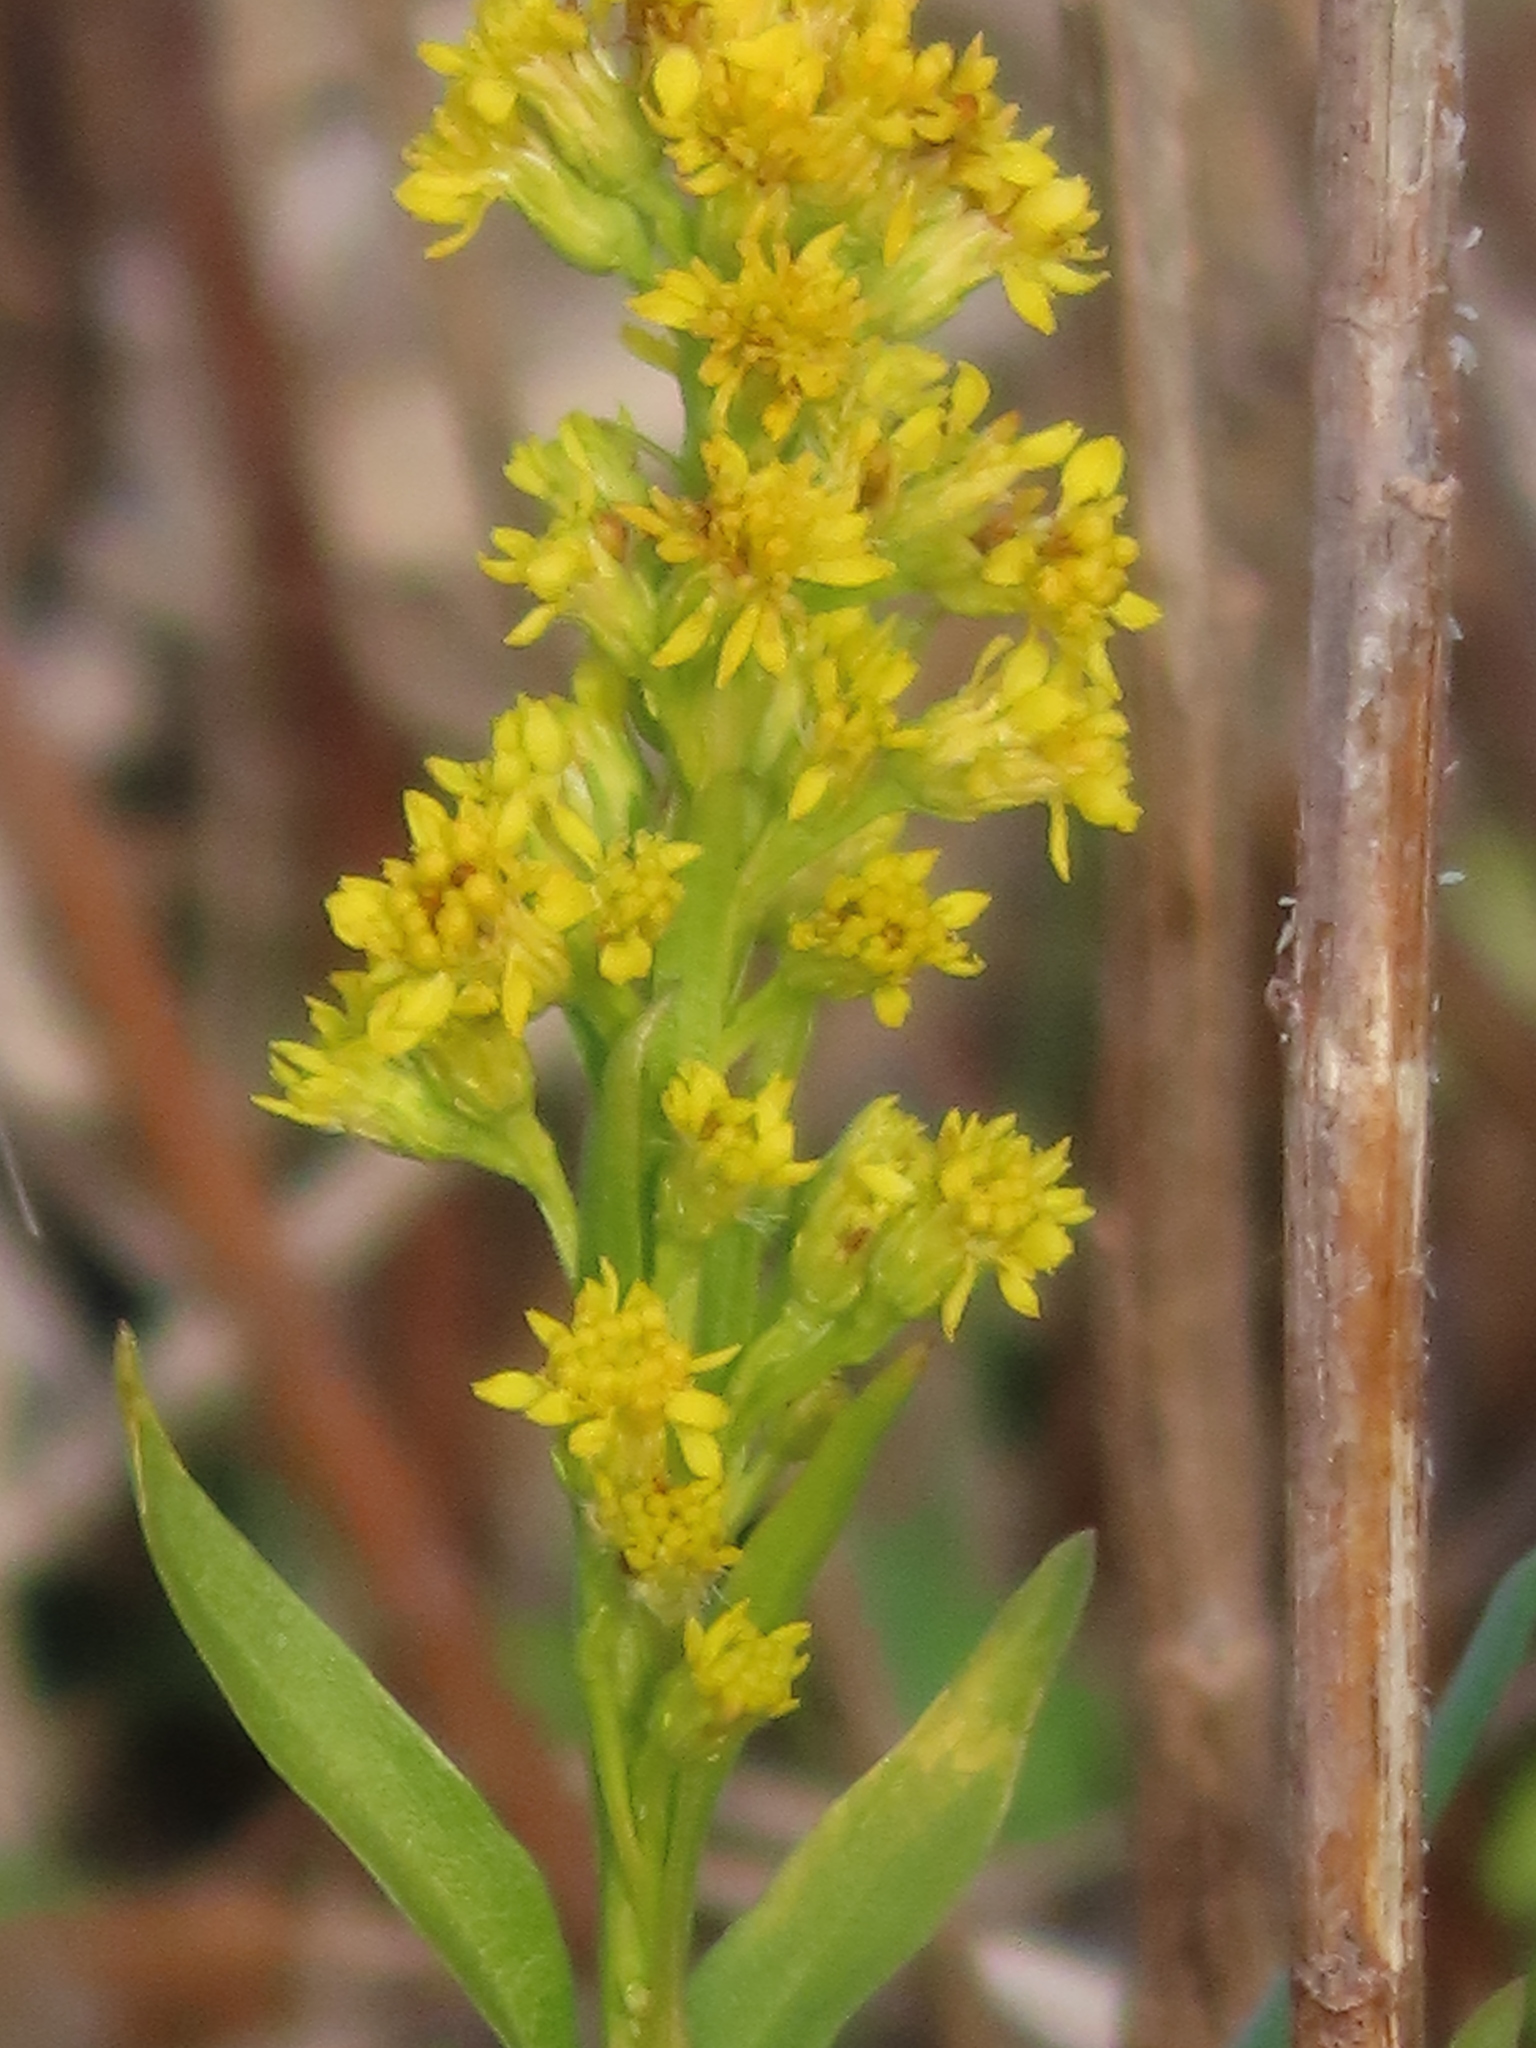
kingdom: Plantae
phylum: Tracheophyta
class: Magnoliopsida
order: Asterales
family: Asteraceae
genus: Solidago
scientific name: Solidago sempervirens
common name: Salt-marsh goldenrod
